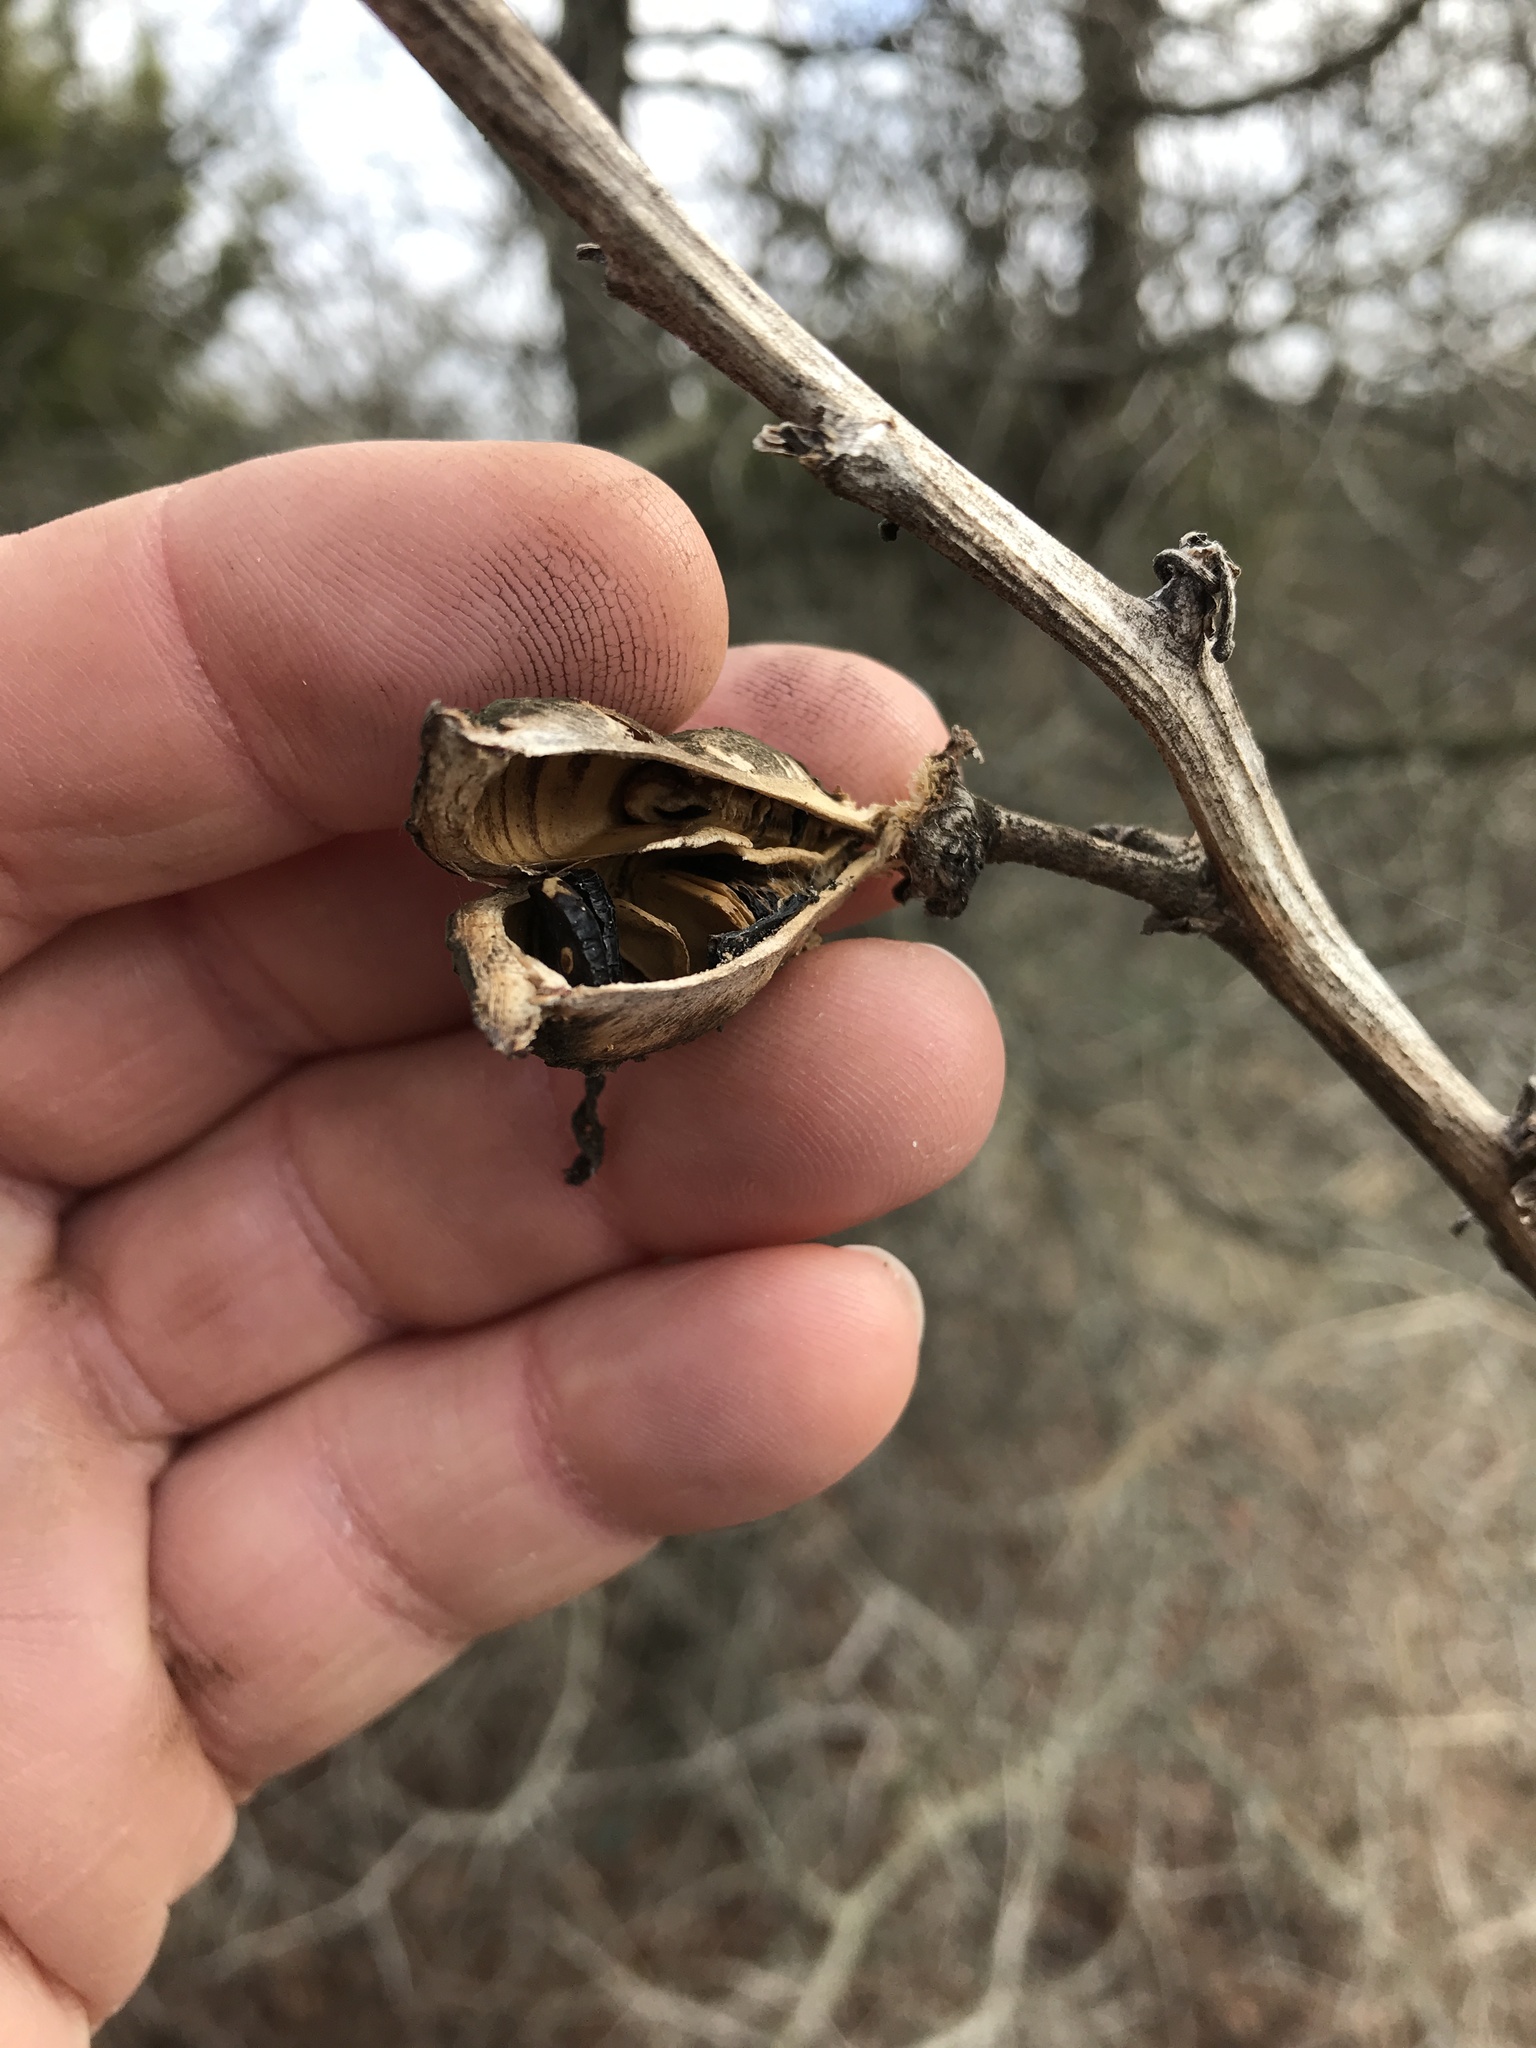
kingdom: Plantae
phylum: Tracheophyta
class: Liliopsida
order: Asparagales
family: Asparagaceae
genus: Yucca
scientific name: Yucca arkansana
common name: Arkansas yucca
